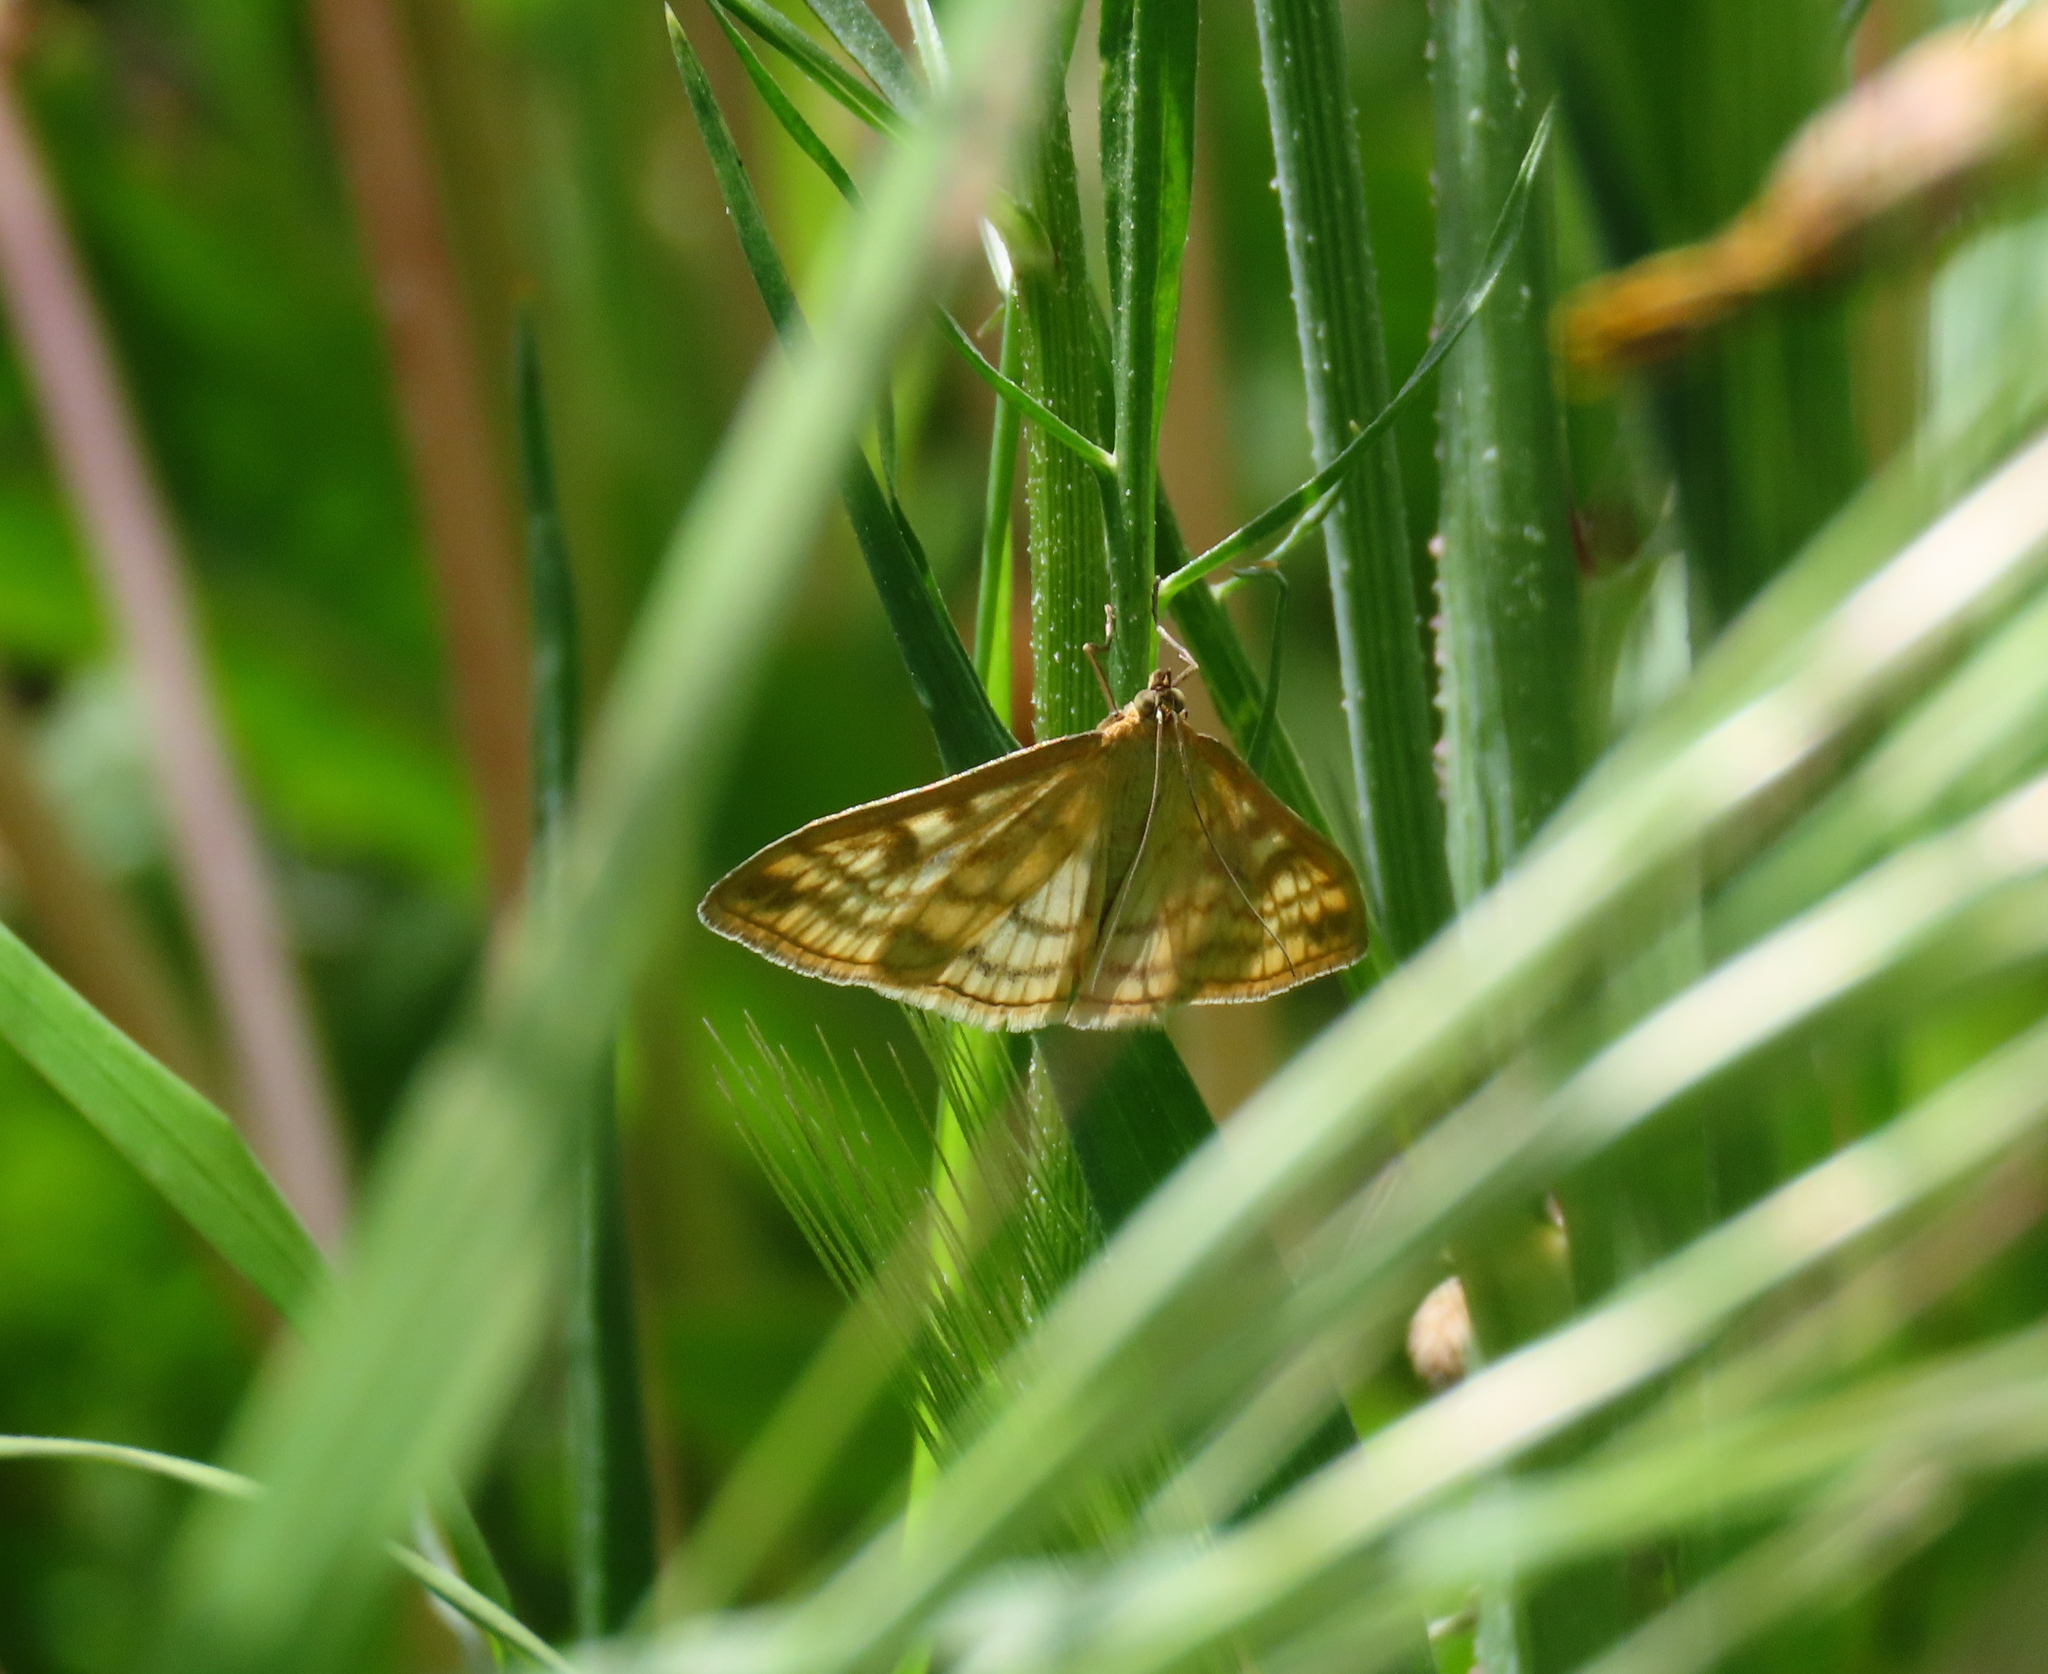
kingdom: Animalia
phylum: Arthropoda
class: Insecta
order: Lepidoptera
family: Crambidae
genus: Sitochroa
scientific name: Sitochroa verticalis
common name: Lesser pearl
